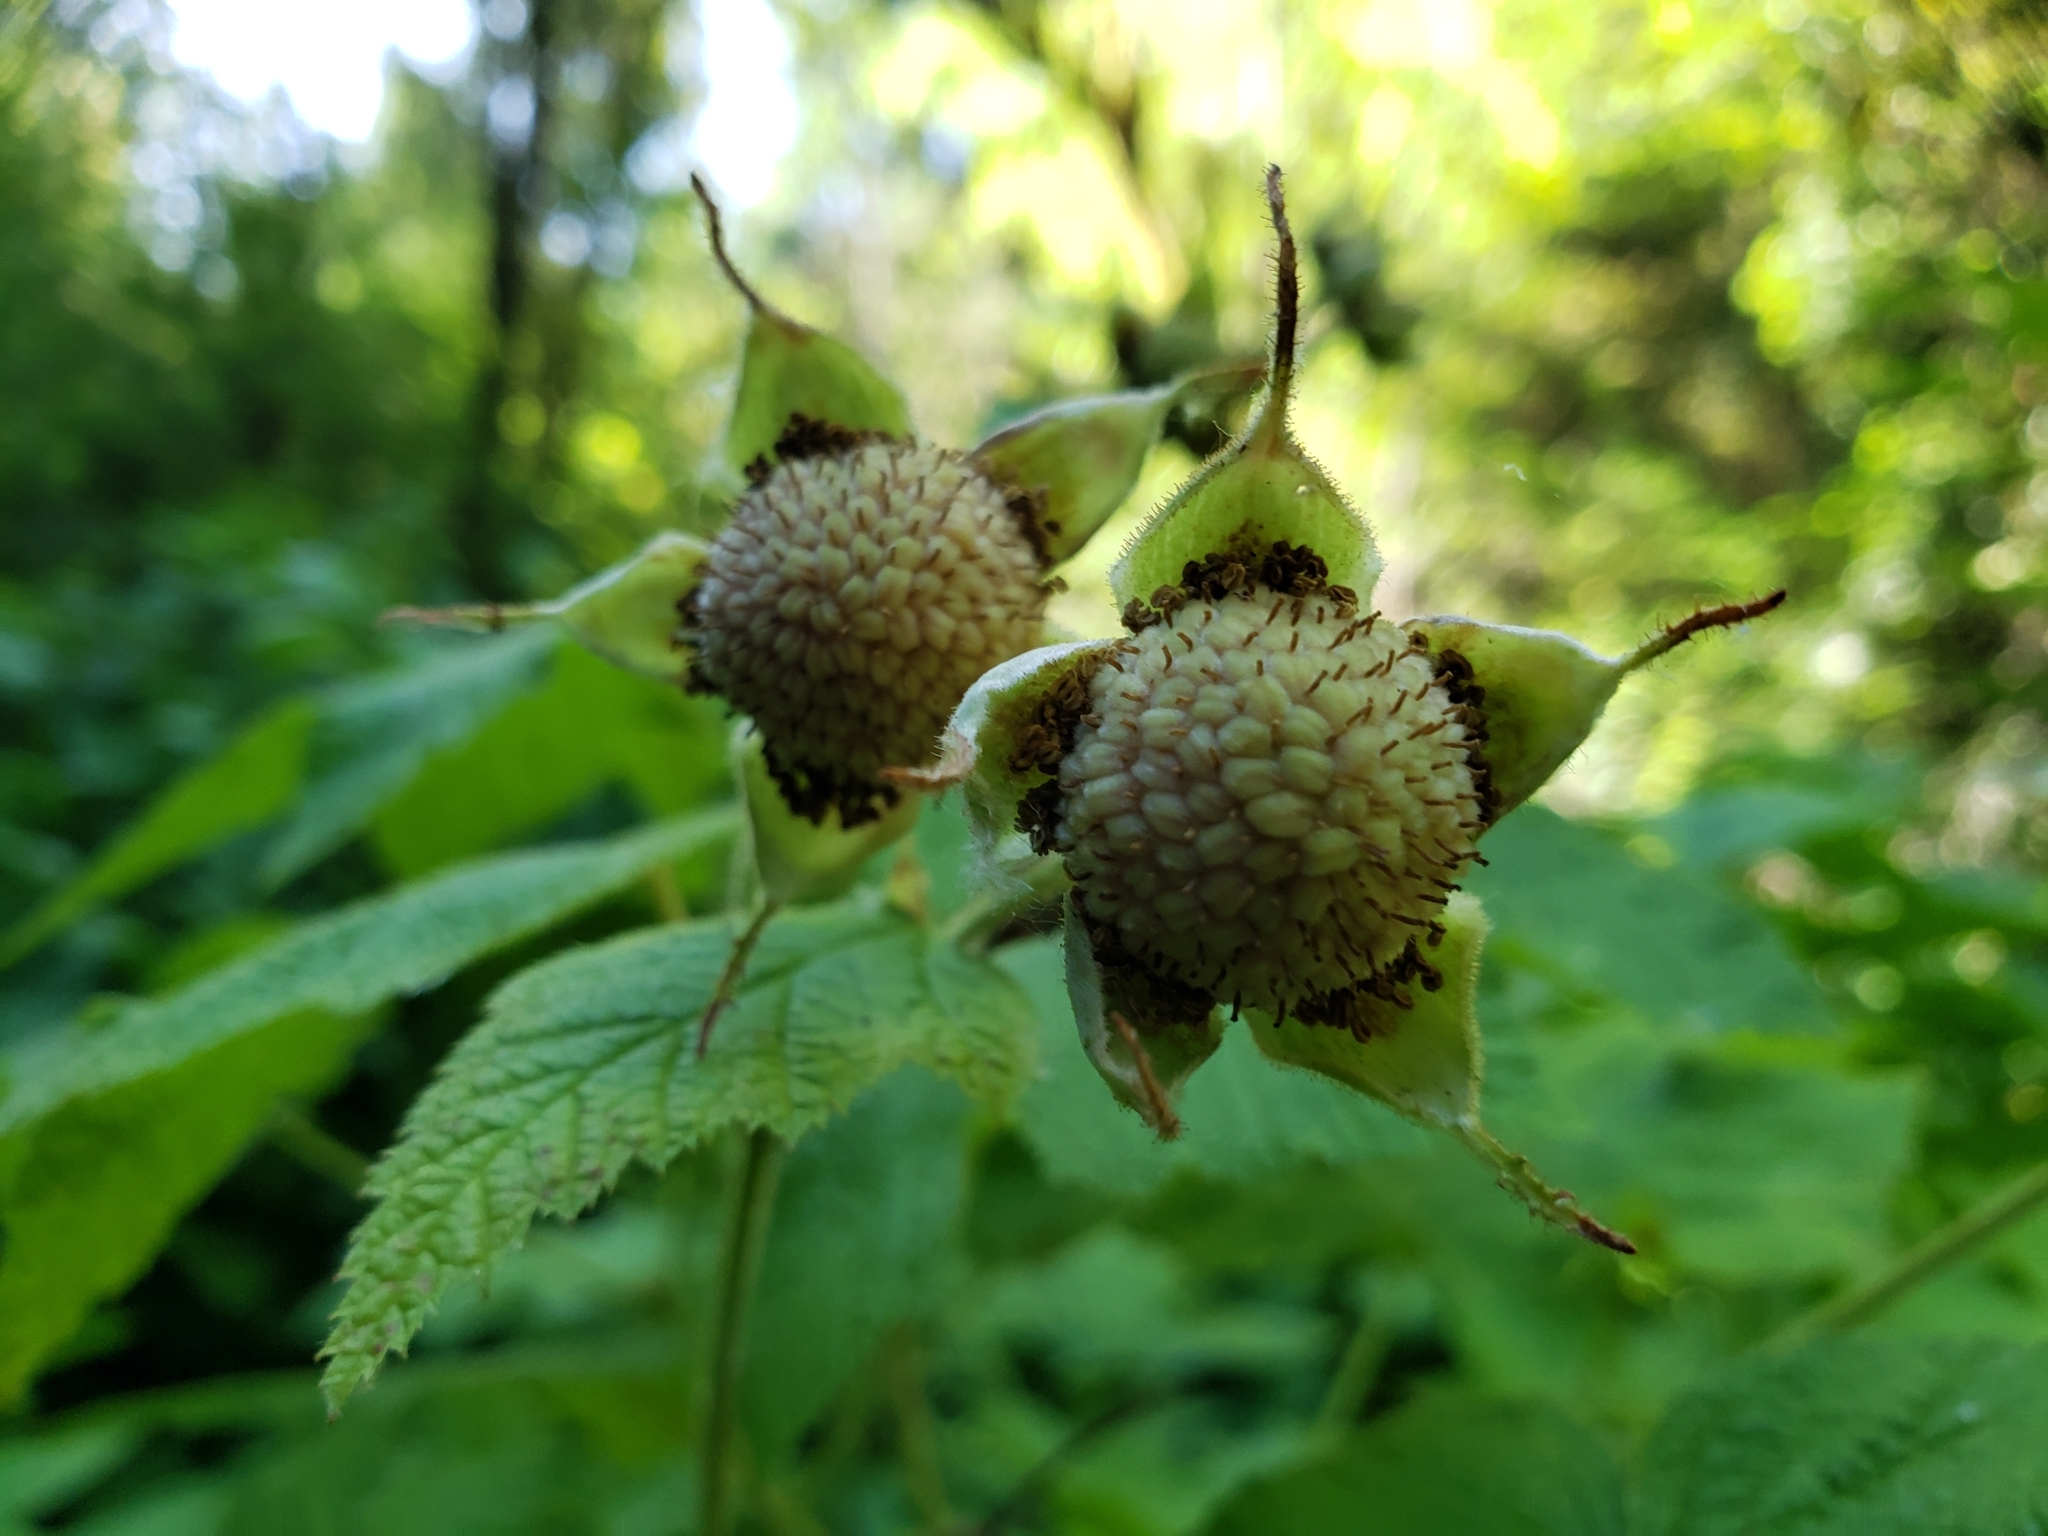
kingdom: Plantae
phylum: Tracheophyta
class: Magnoliopsida
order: Rosales
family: Rosaceae
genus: Rubus
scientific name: Rubus parviflorus
